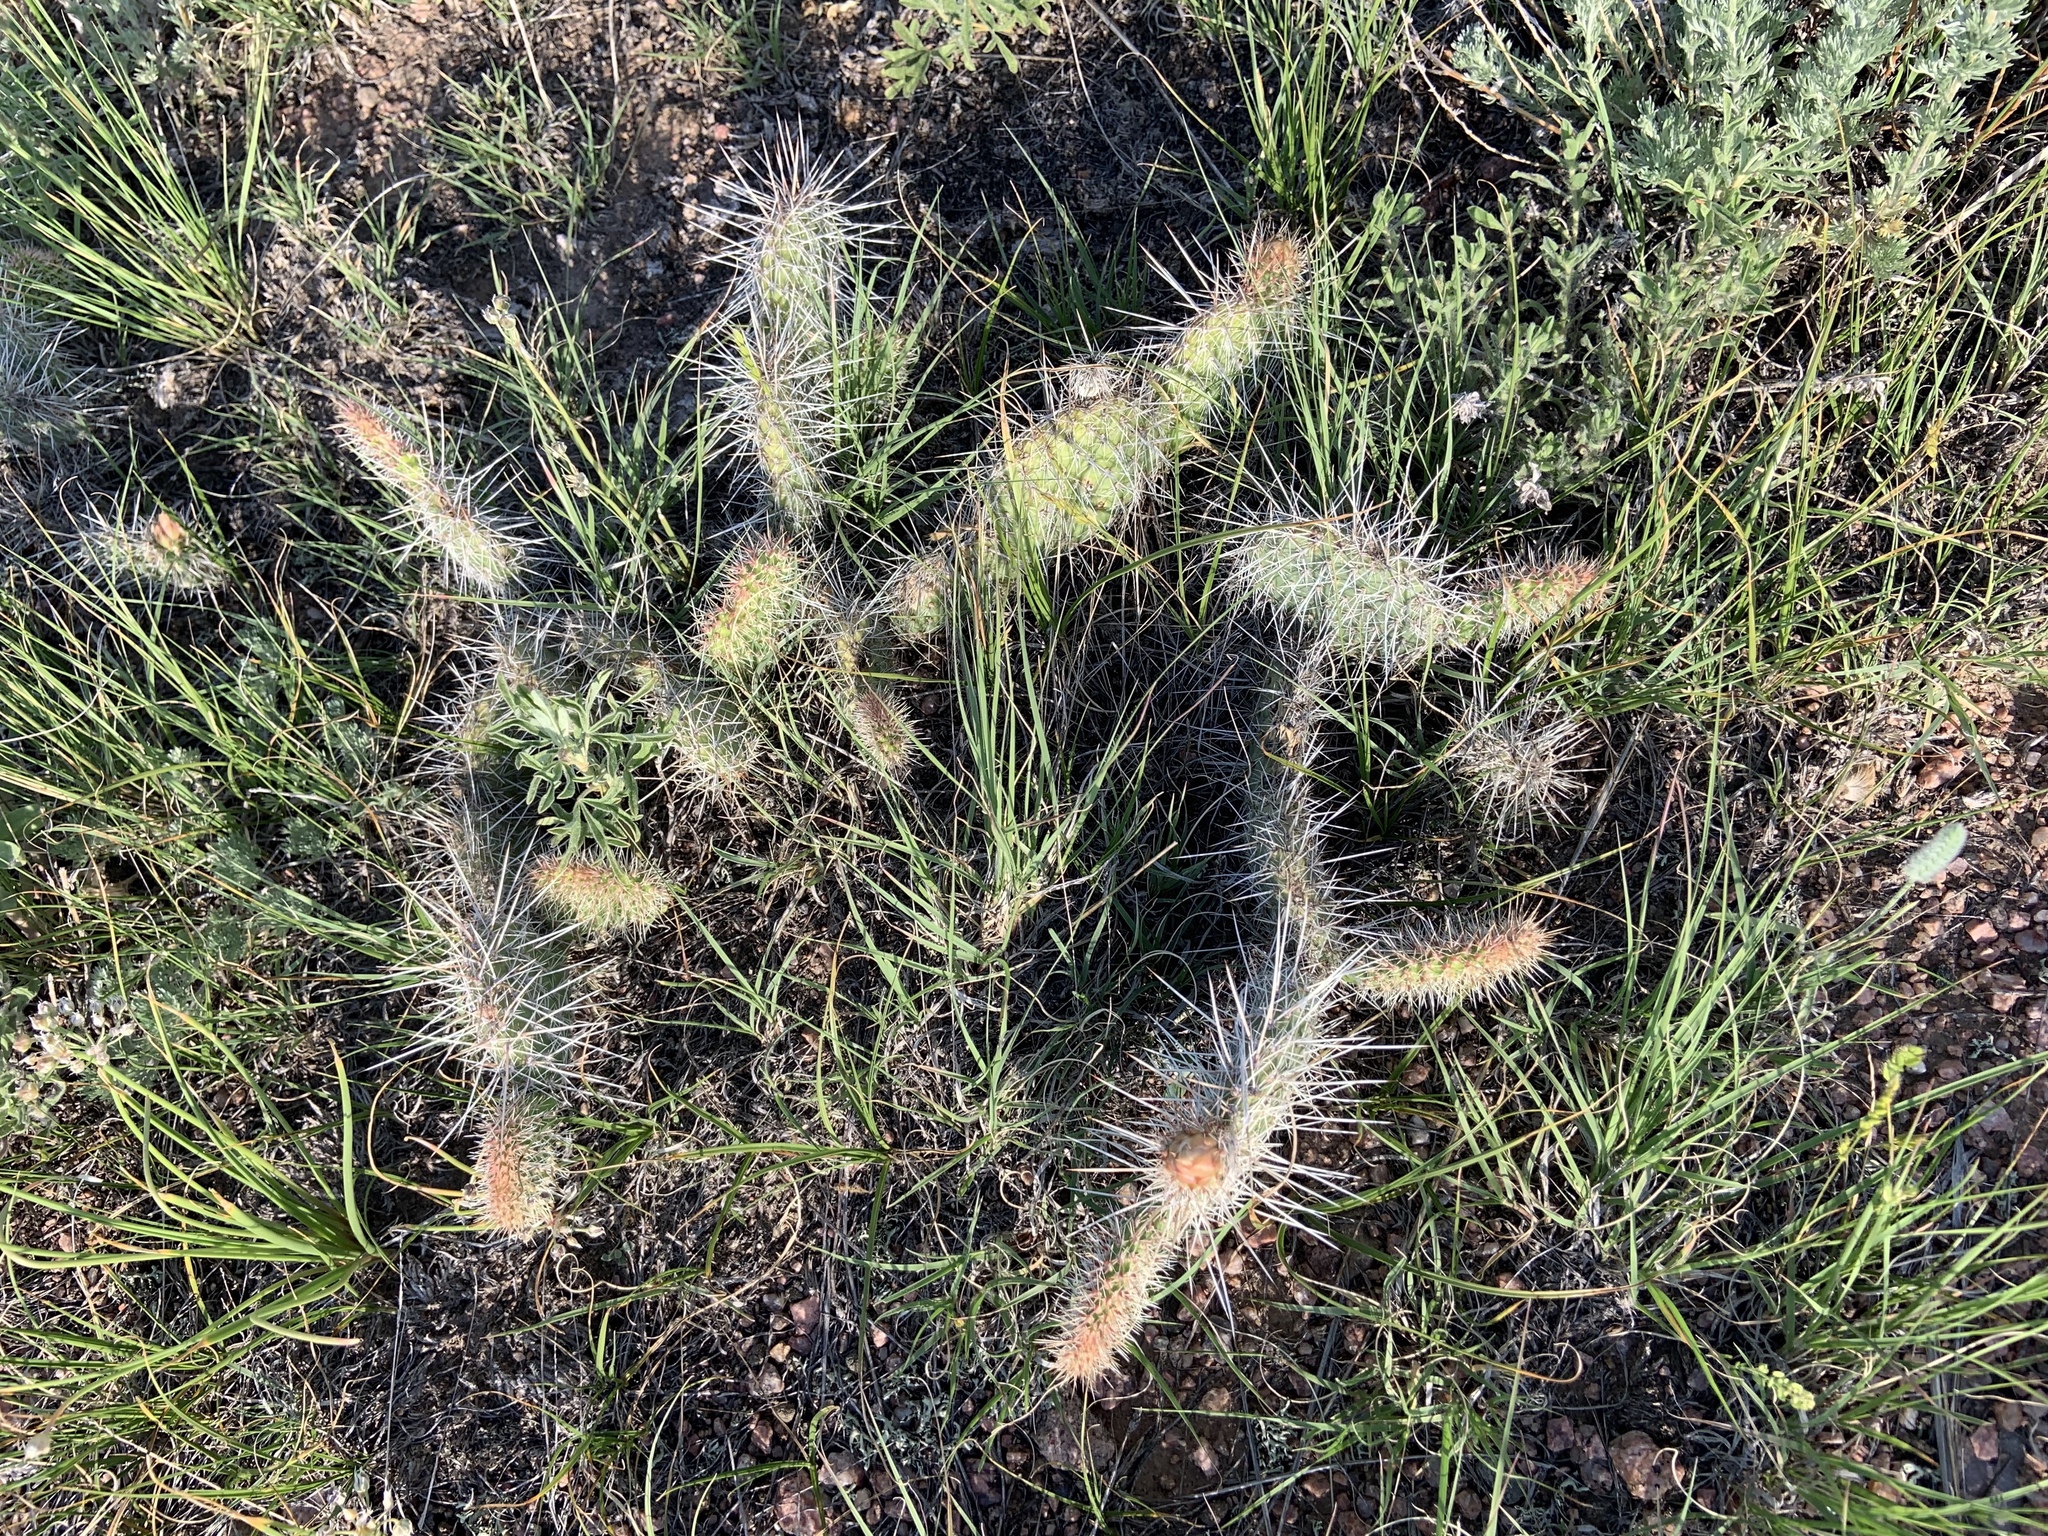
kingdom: Plantae
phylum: Tracheophyta
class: Magnoliopsida
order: Caryophyllales
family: Cactaceae
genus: Opuntia
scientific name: Opuntia polyacantha
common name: Plains prickly-pear
